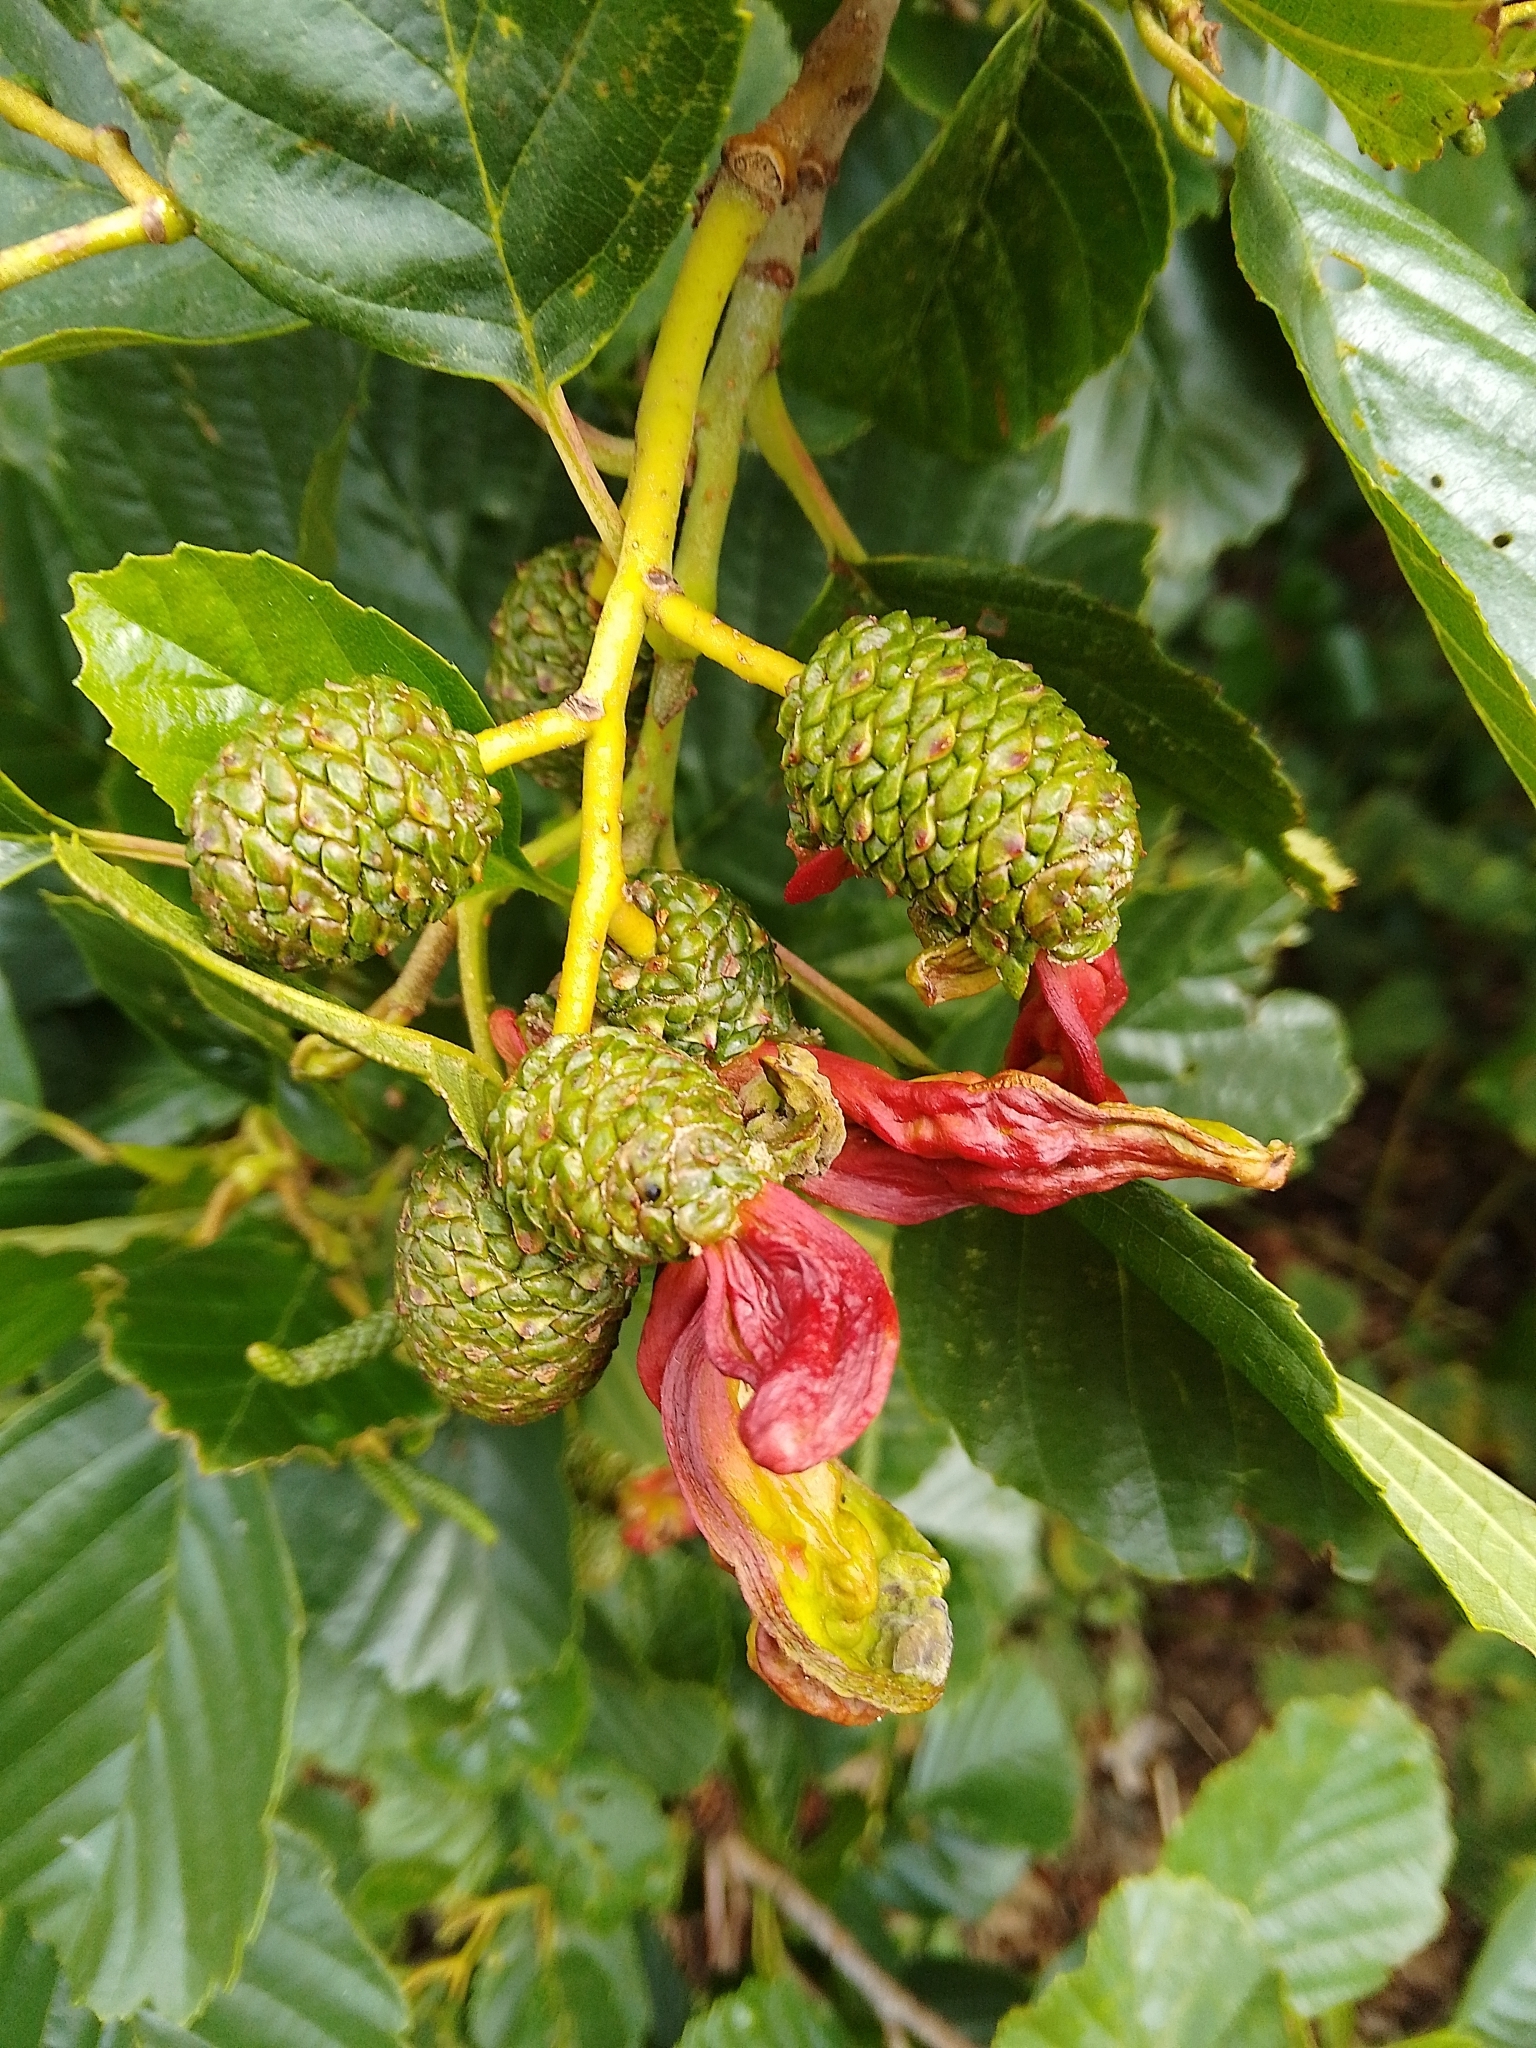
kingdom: Fungi
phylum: Ascomycota
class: Taphrinomycetes
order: Taphrinales
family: Taphrinaceae
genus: Taphrina
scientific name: Taphrina alni
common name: Alder tongue
